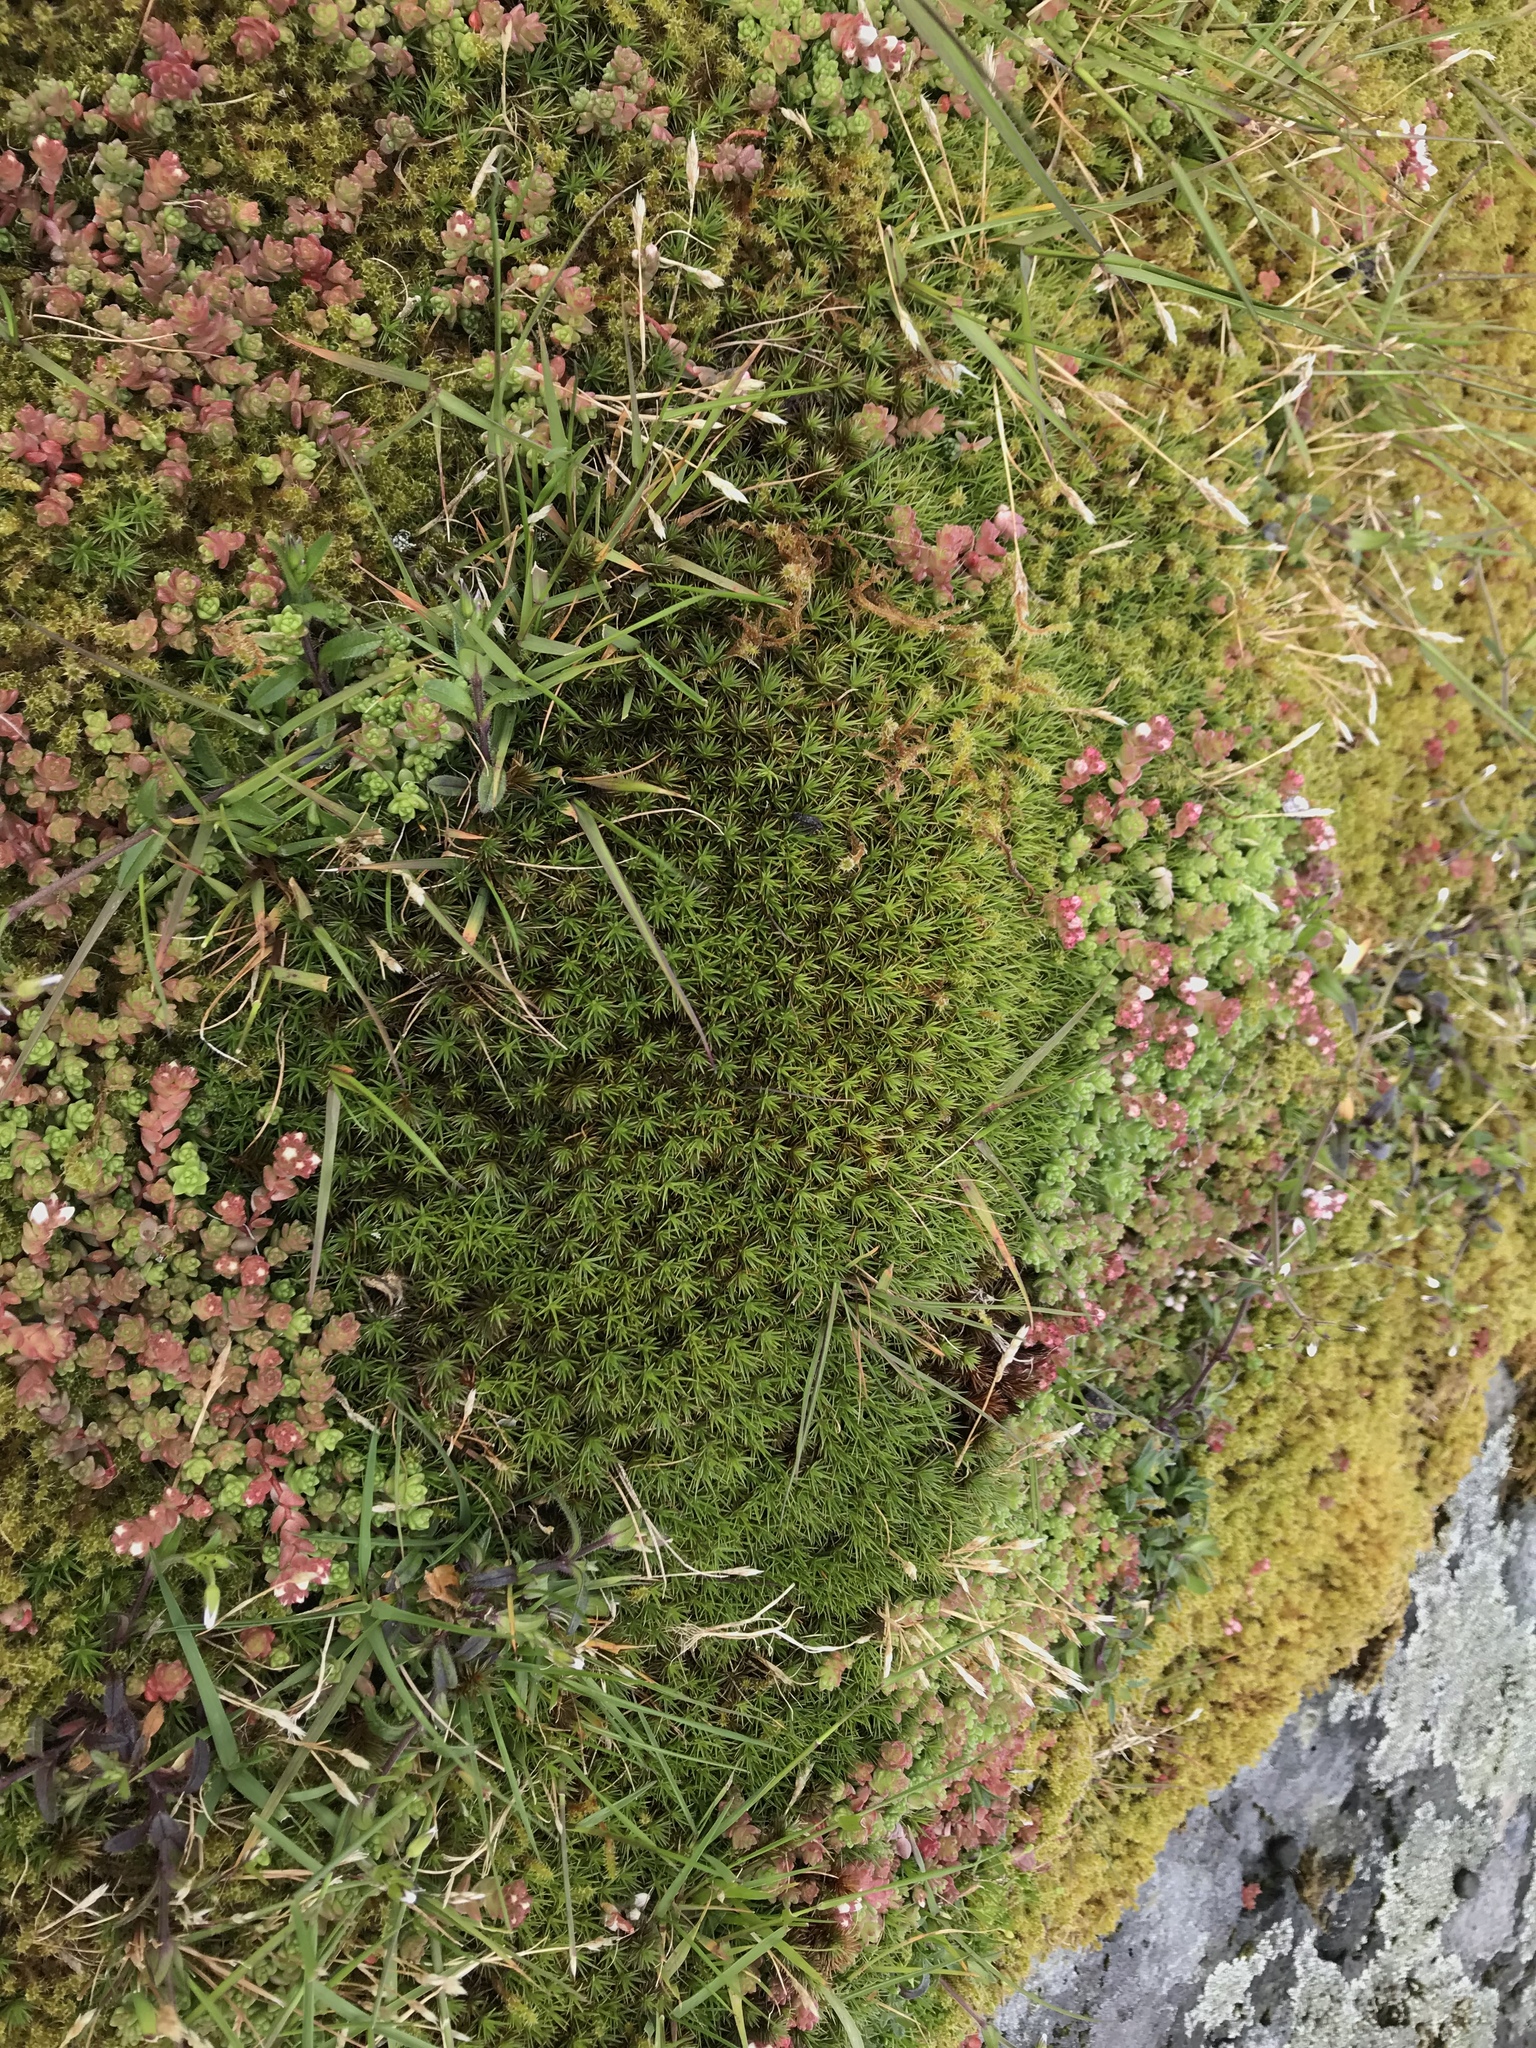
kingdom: Plantae
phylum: Bryophyta
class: Polytrichopsida
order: Polytrichales
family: Polytrichaceae
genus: Polytrichum
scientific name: Polytrichum juniperinum
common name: Juniper haircap moss
